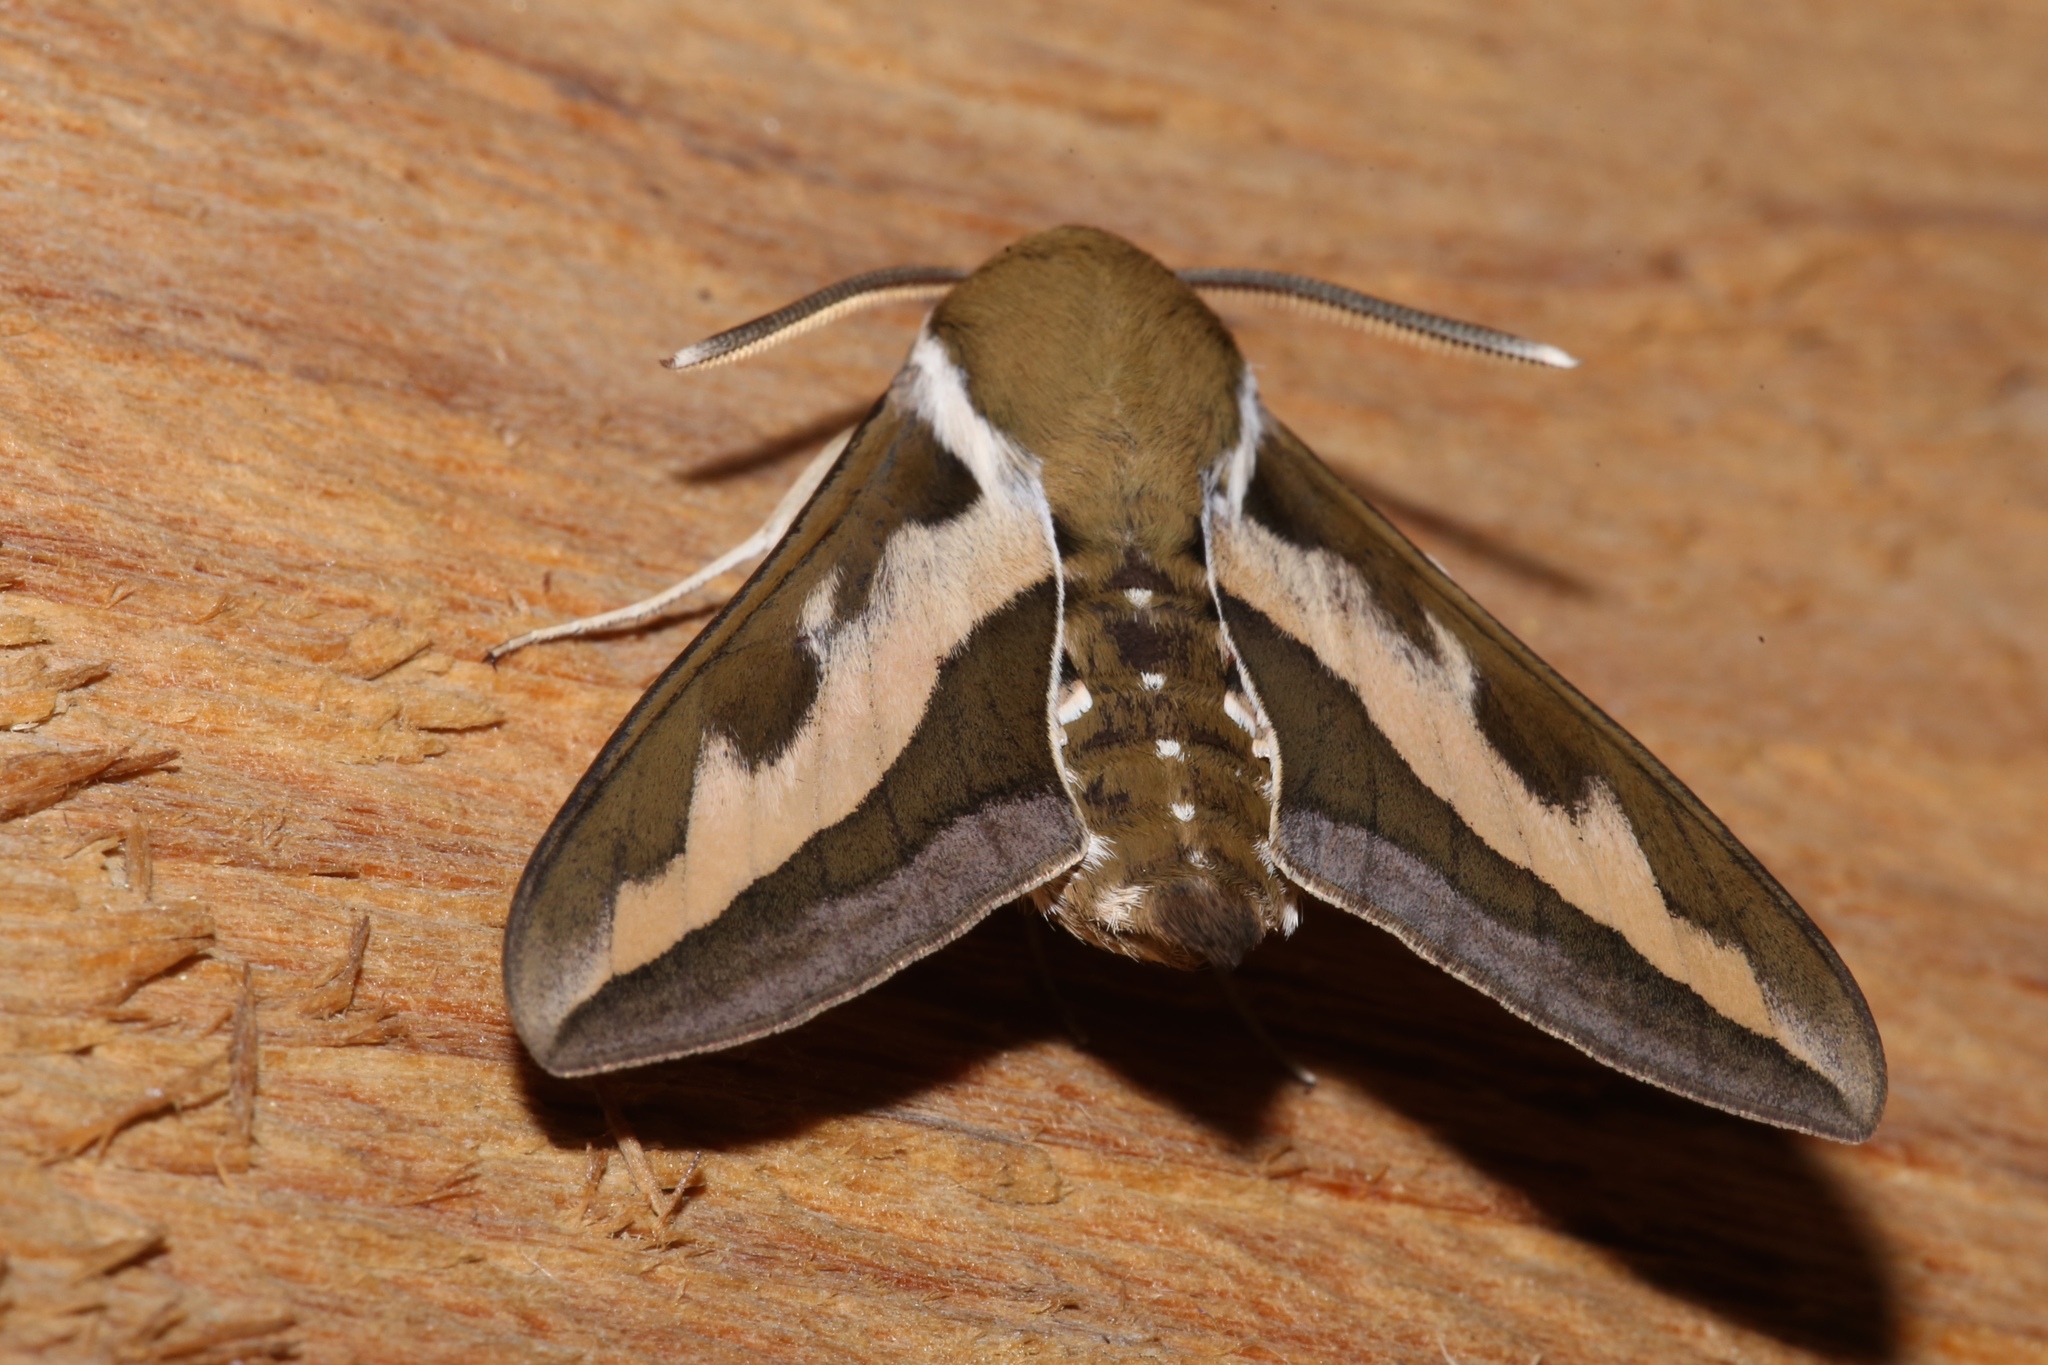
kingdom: Animalia
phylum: Arthropoda
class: Insecta
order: Lepidoptera
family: Sphingidae
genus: Hyles
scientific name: Hyles gallii
